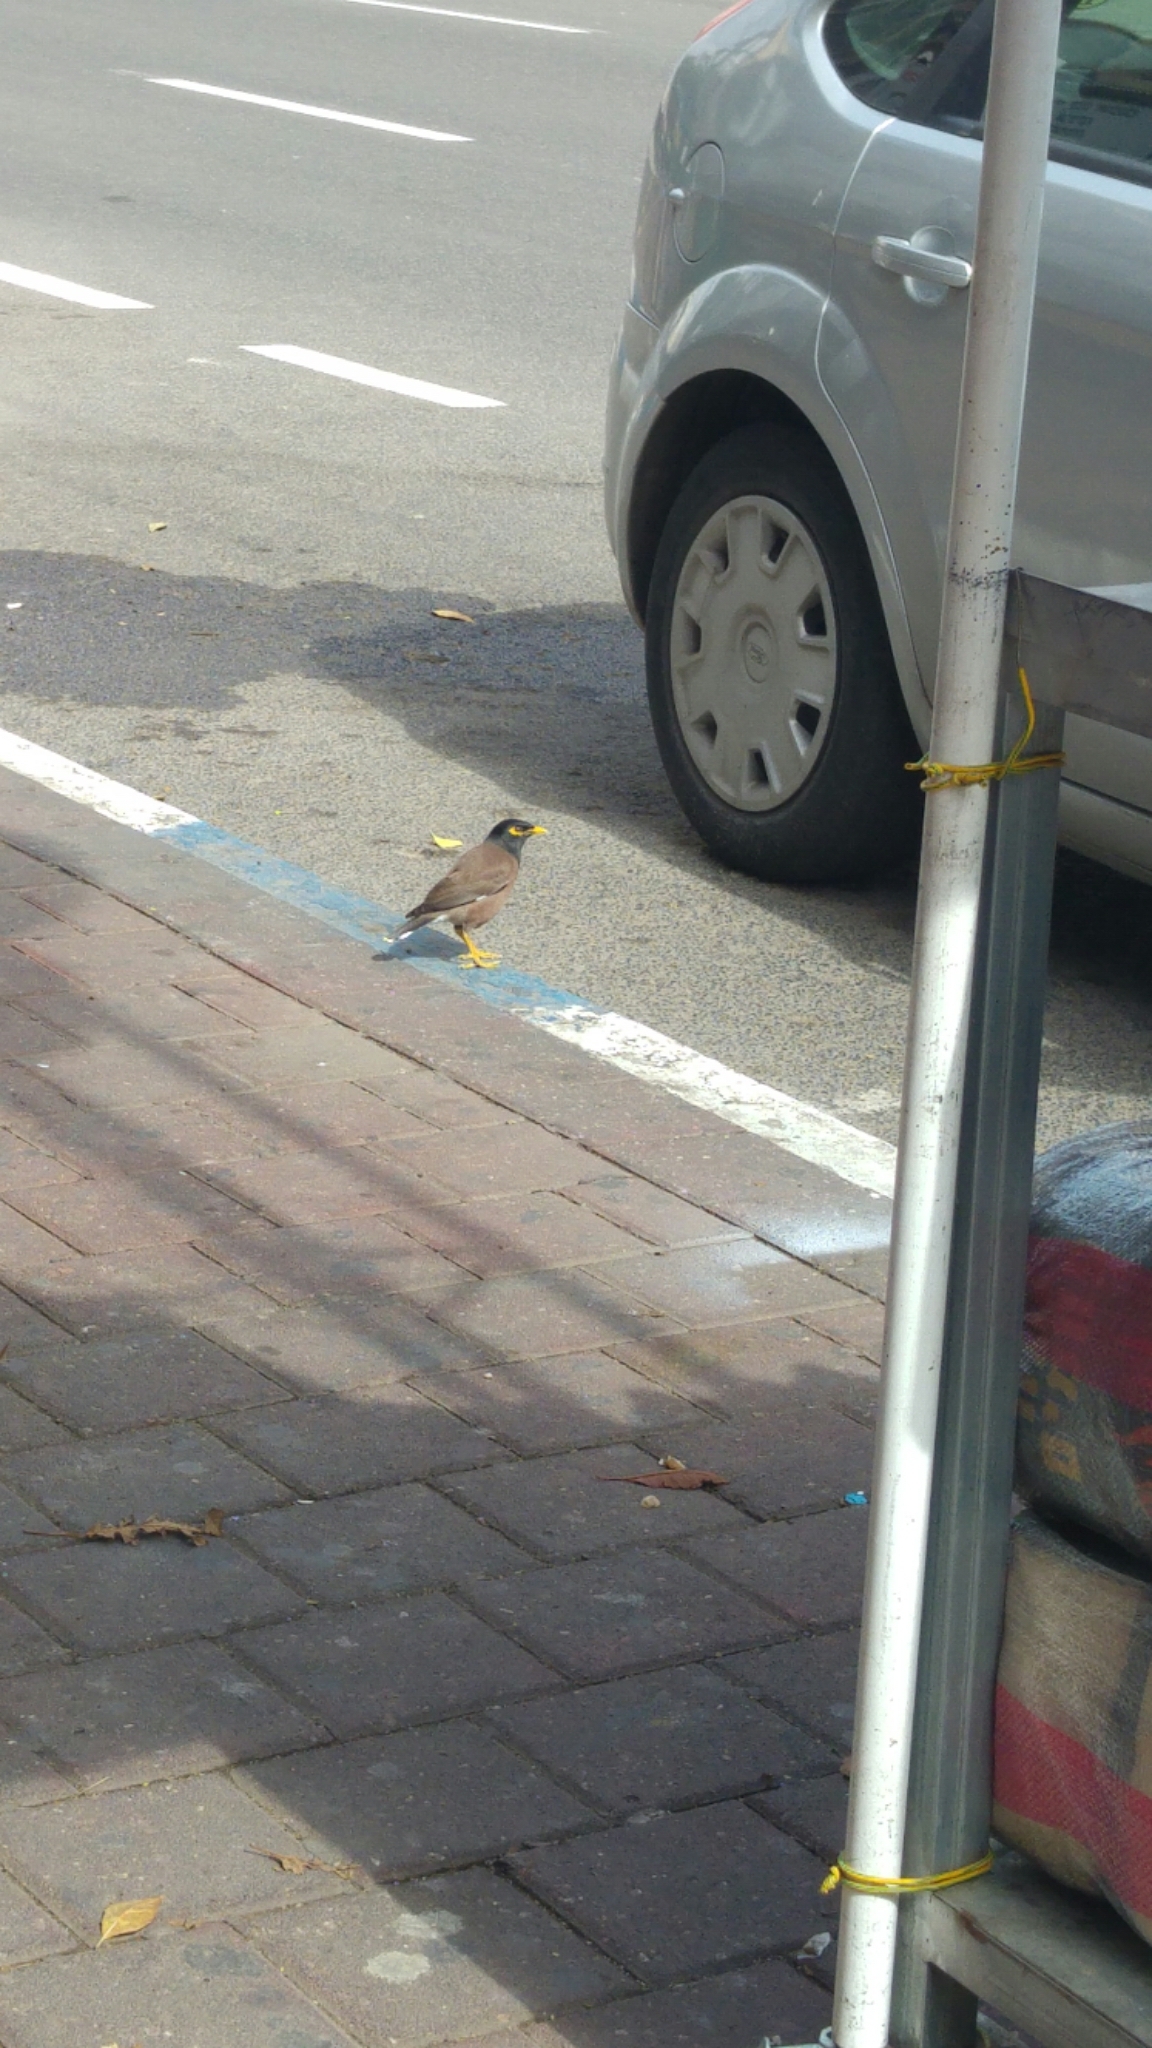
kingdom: Animalia
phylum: Chordata
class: Aves
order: Passeriformes
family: Sturnidae
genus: Acridotheres
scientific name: Acridotheres tristis
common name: Common myna
